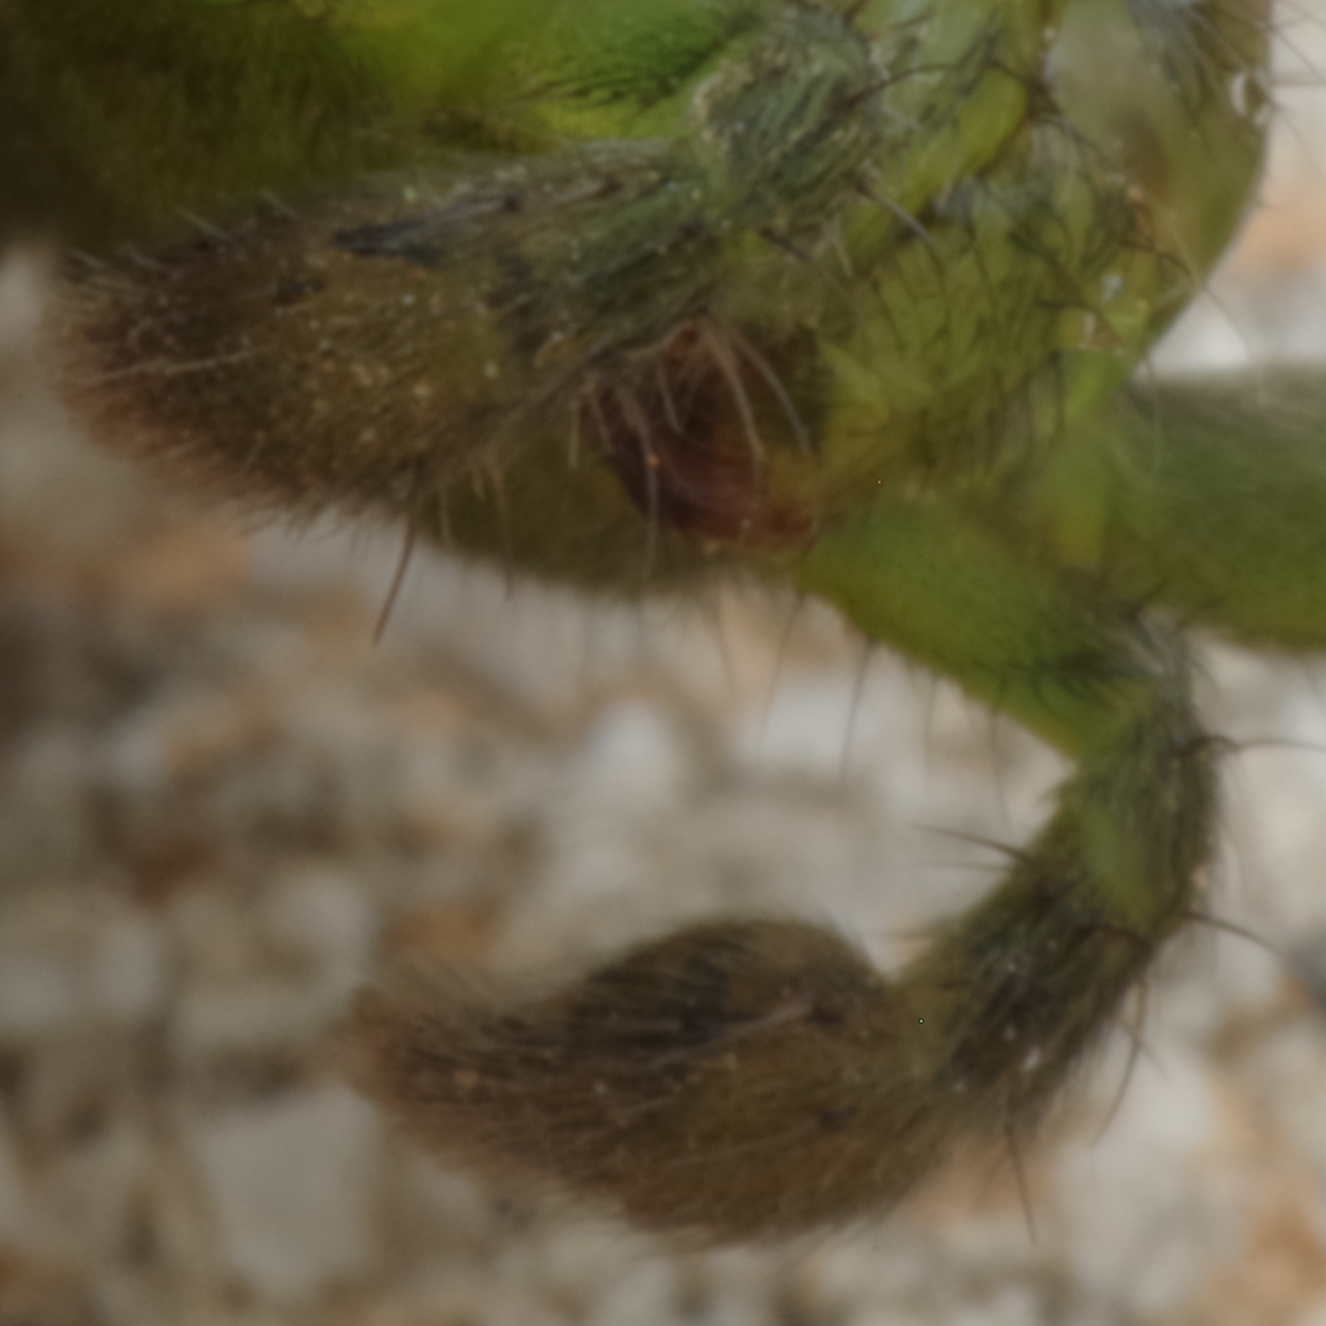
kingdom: Animalia
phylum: Arthropoda
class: Arachnida
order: Araneae
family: Sparassidae
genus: Micrommata
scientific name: Micrommata ligurina
